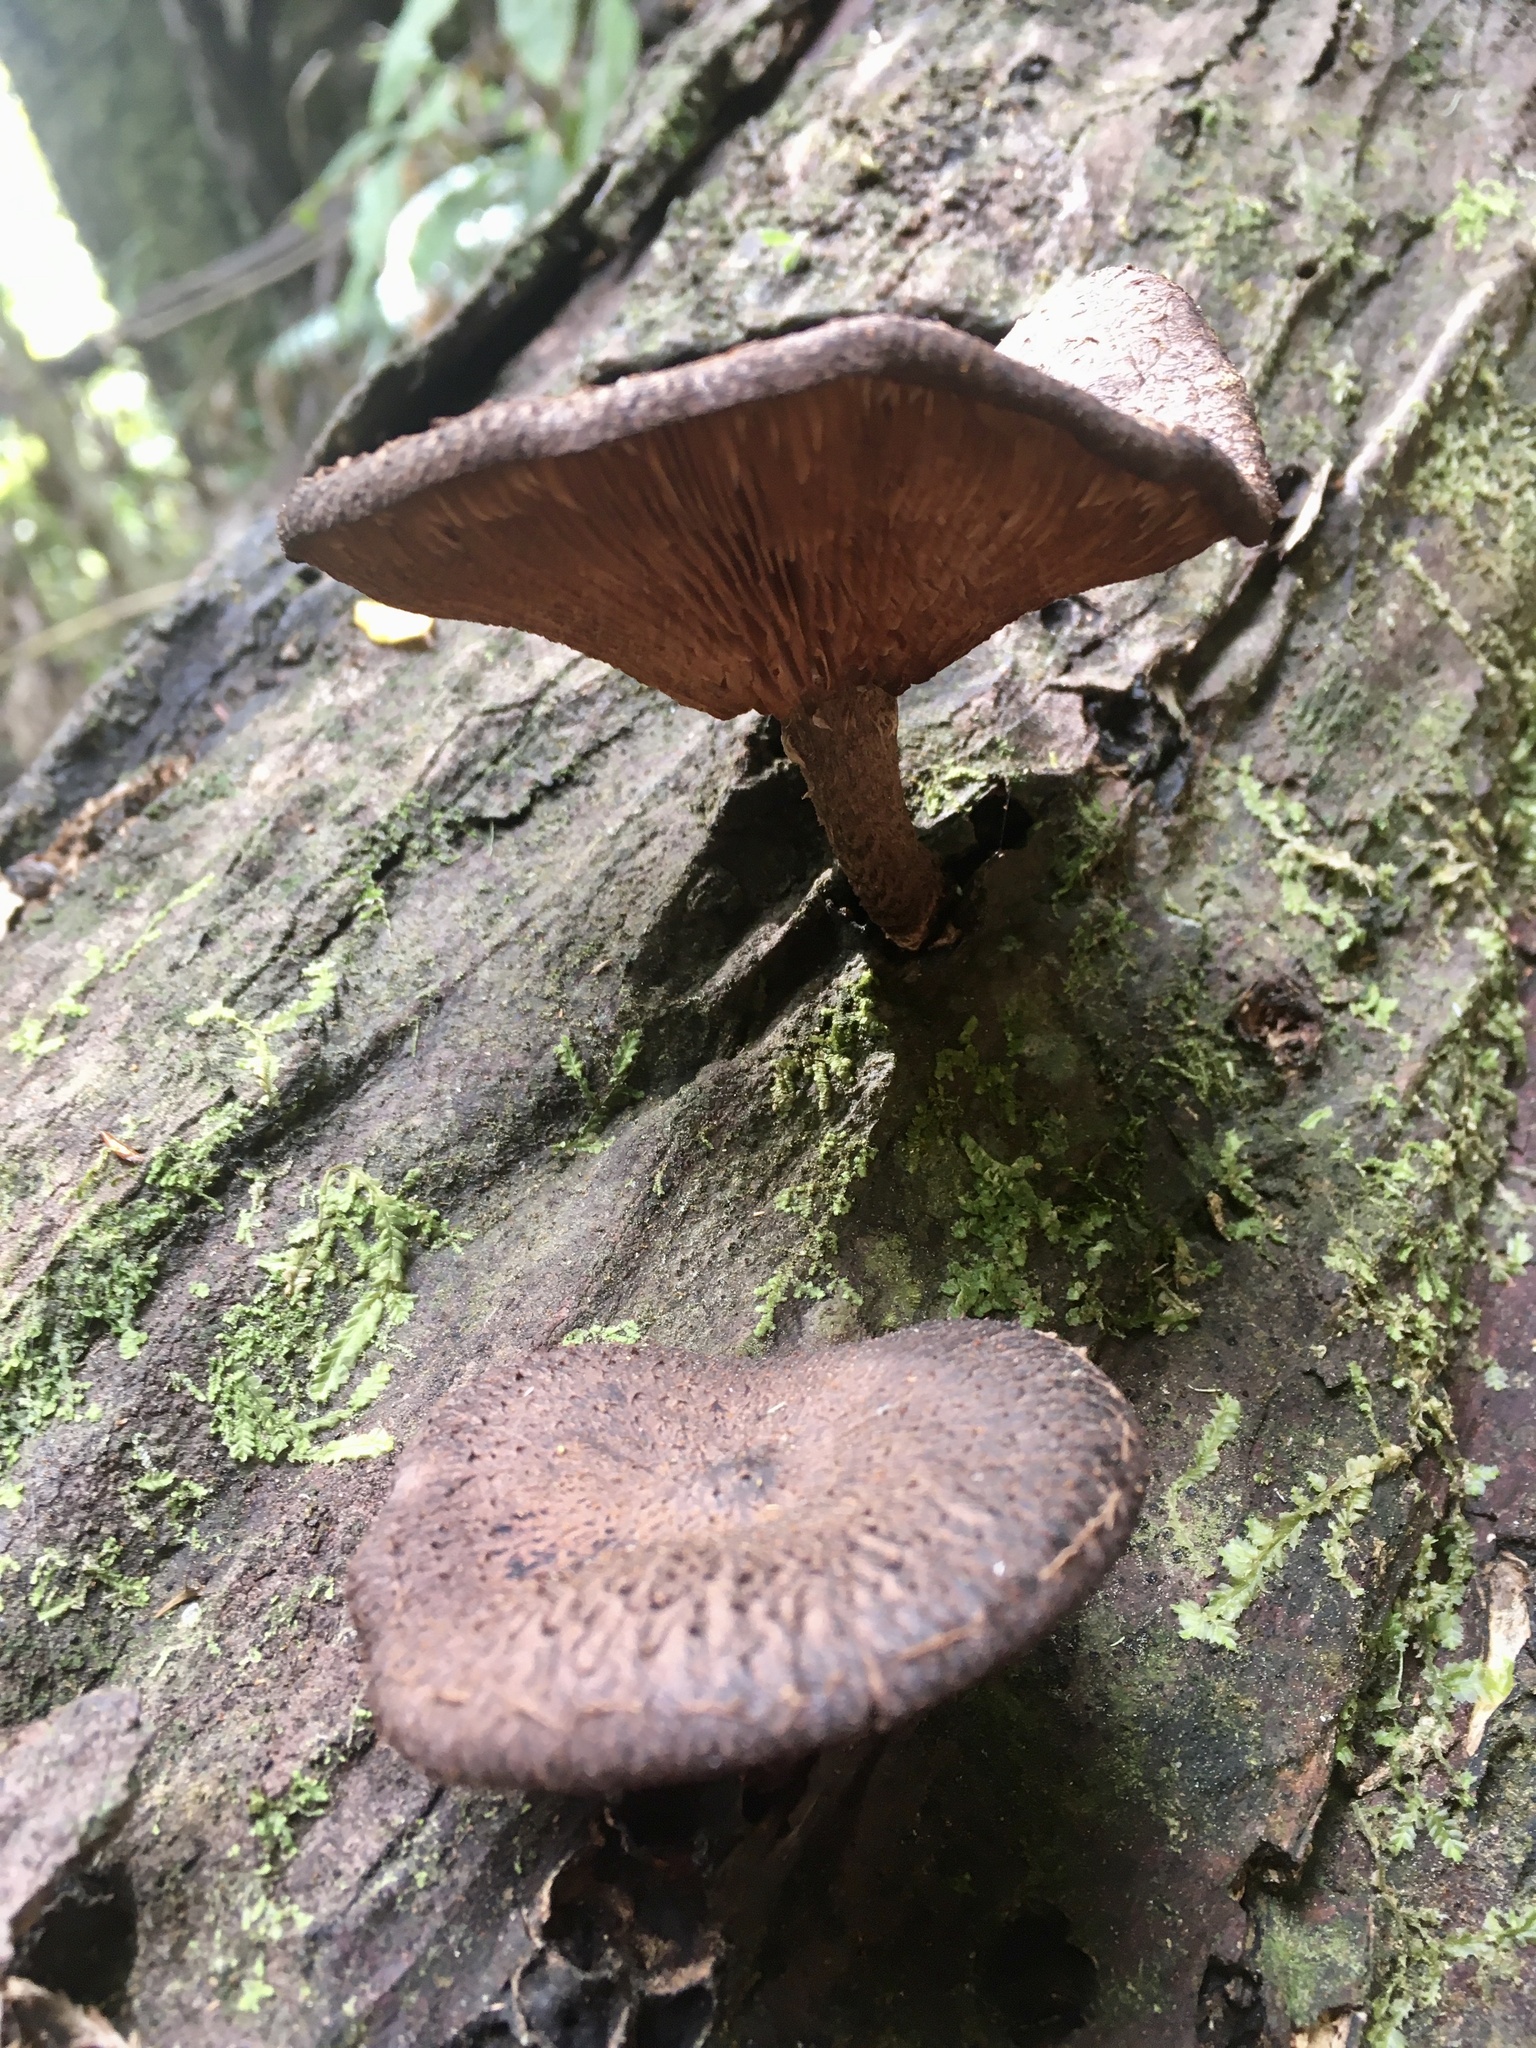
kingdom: Fungi
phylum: Basidiomycota
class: Agaricomycetes
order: Agaricales
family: Omphalotaceae
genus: Lentinula
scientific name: Lentinula novae-zelandiae
